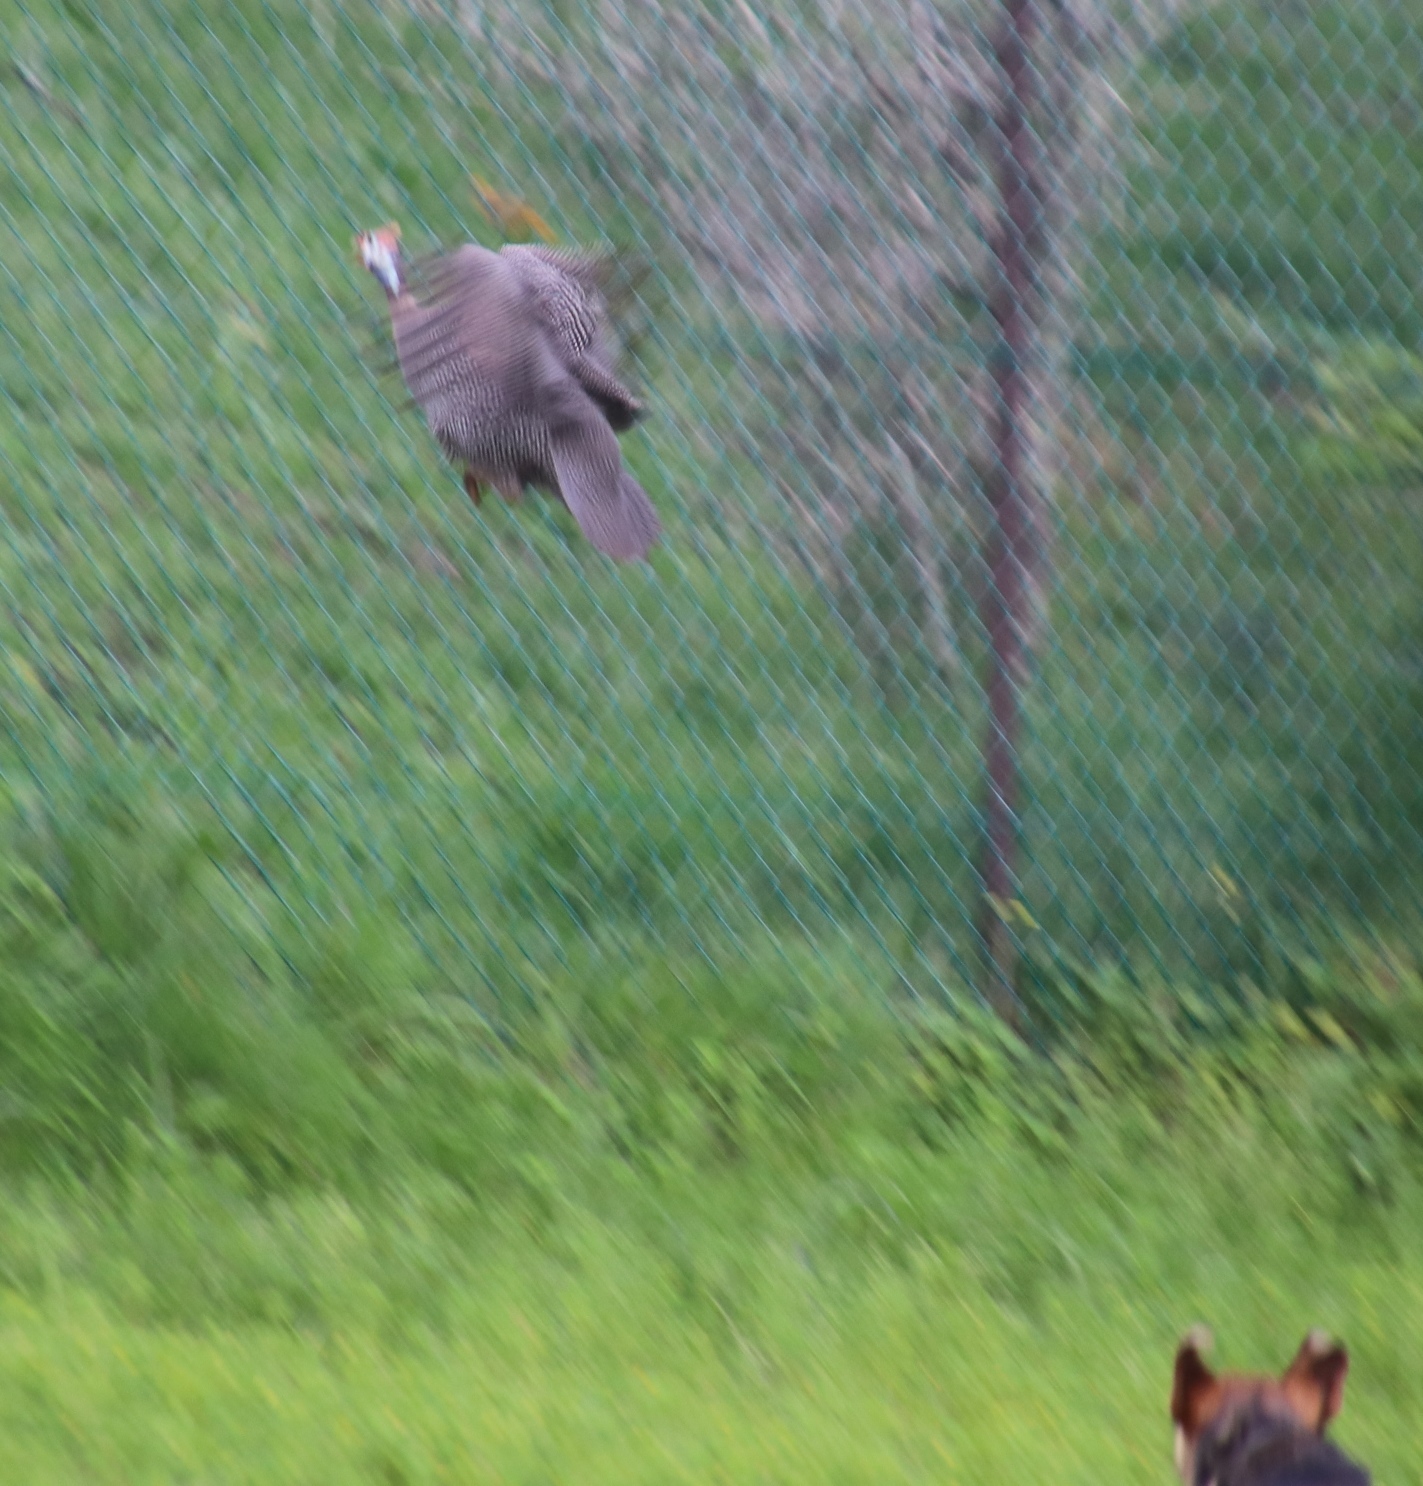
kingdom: Animalia
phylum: Chordata
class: Aves
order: Galliformes
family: Numididae
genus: Numida
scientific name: Numida meleagris
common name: Helmeted guineafowl
